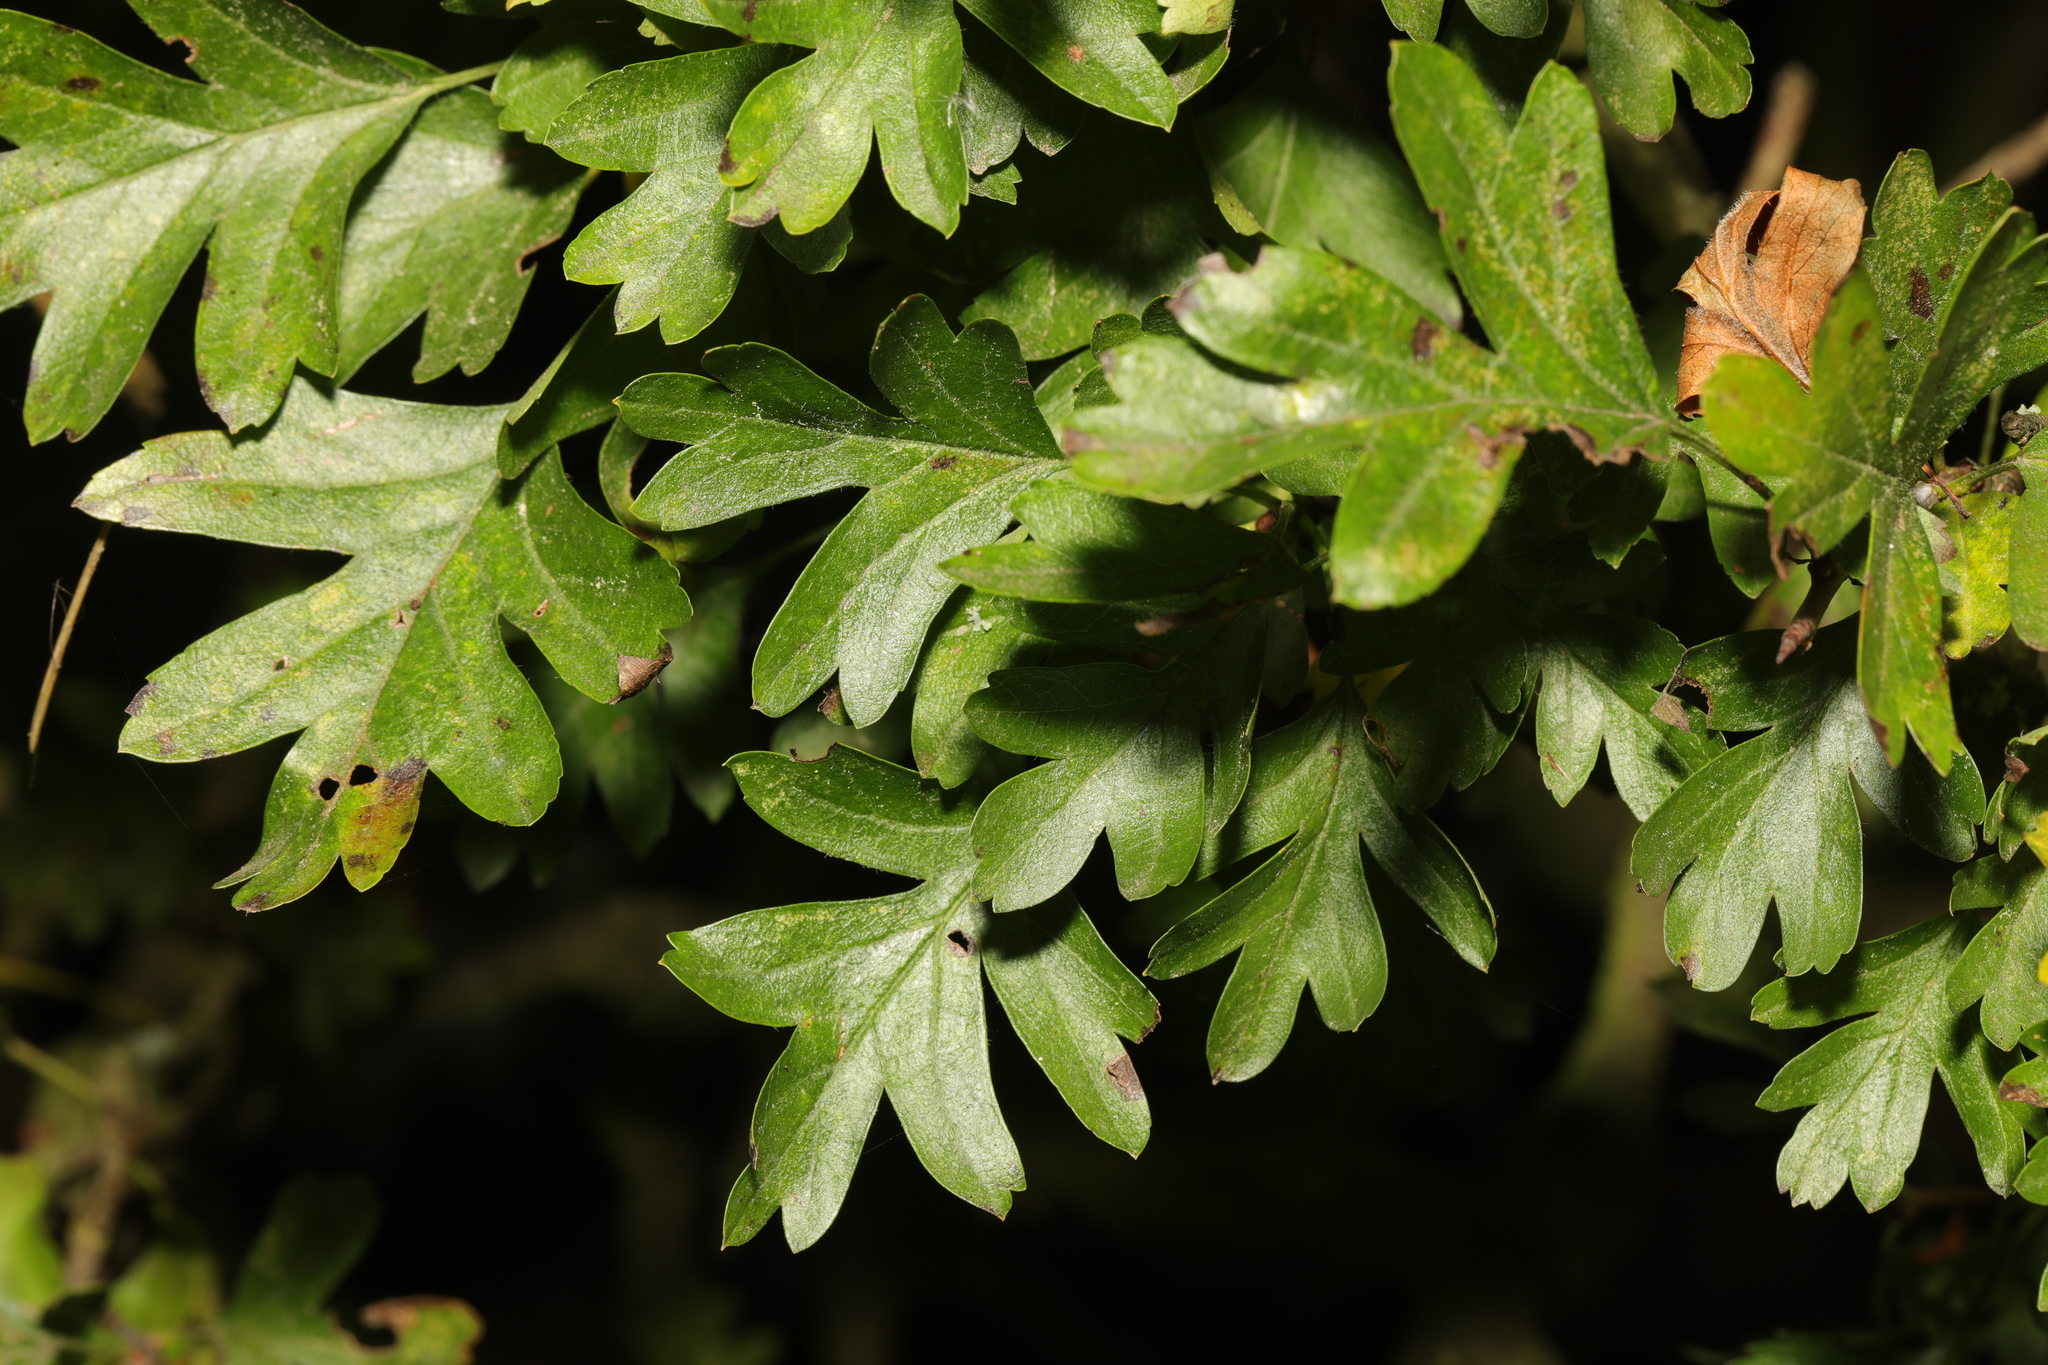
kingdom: Plantae
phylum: Tracheophyta
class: Magnoliopsida
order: Rosales
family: Rosaceae
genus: Crataegus
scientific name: Crataegus monogyna
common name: Hawthorn
